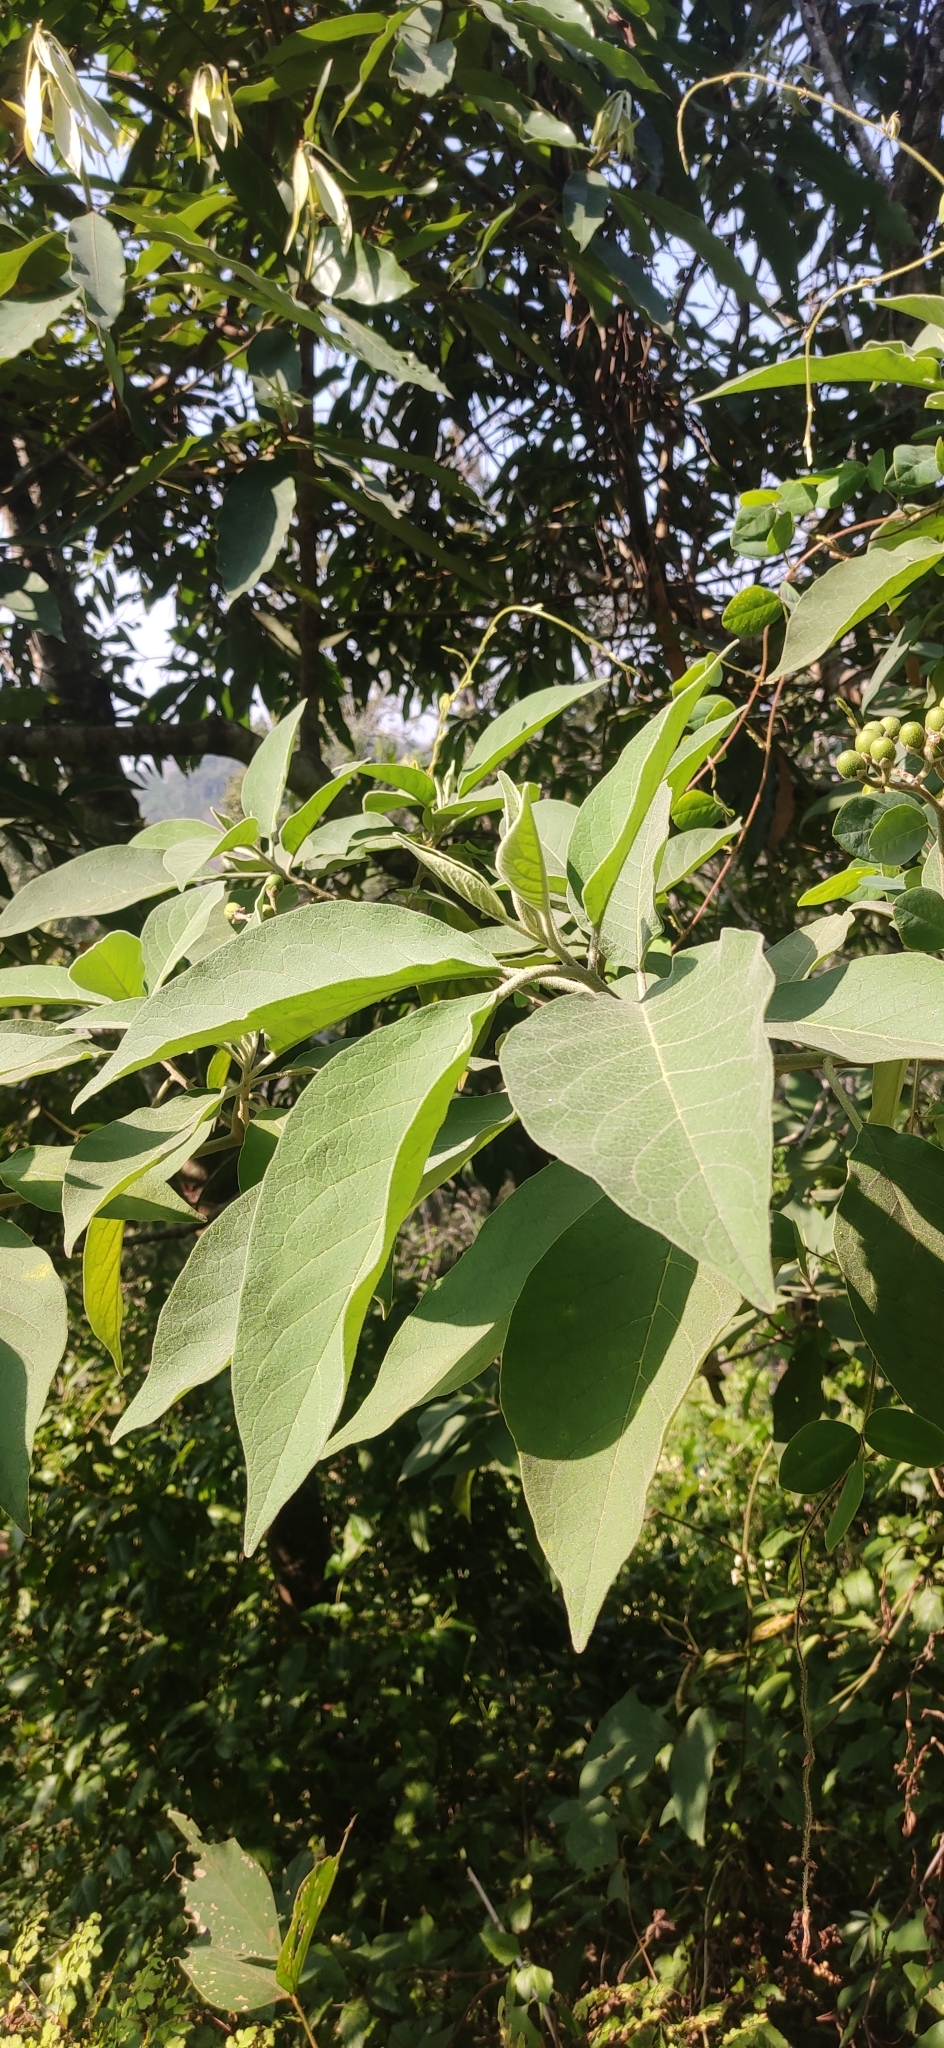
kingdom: Plantae
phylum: Tracheophyta
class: Magnoliopsida
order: Solanales
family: Solanaceae
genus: Solanum
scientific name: Solanum erianthum
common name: Tobacco-tree
